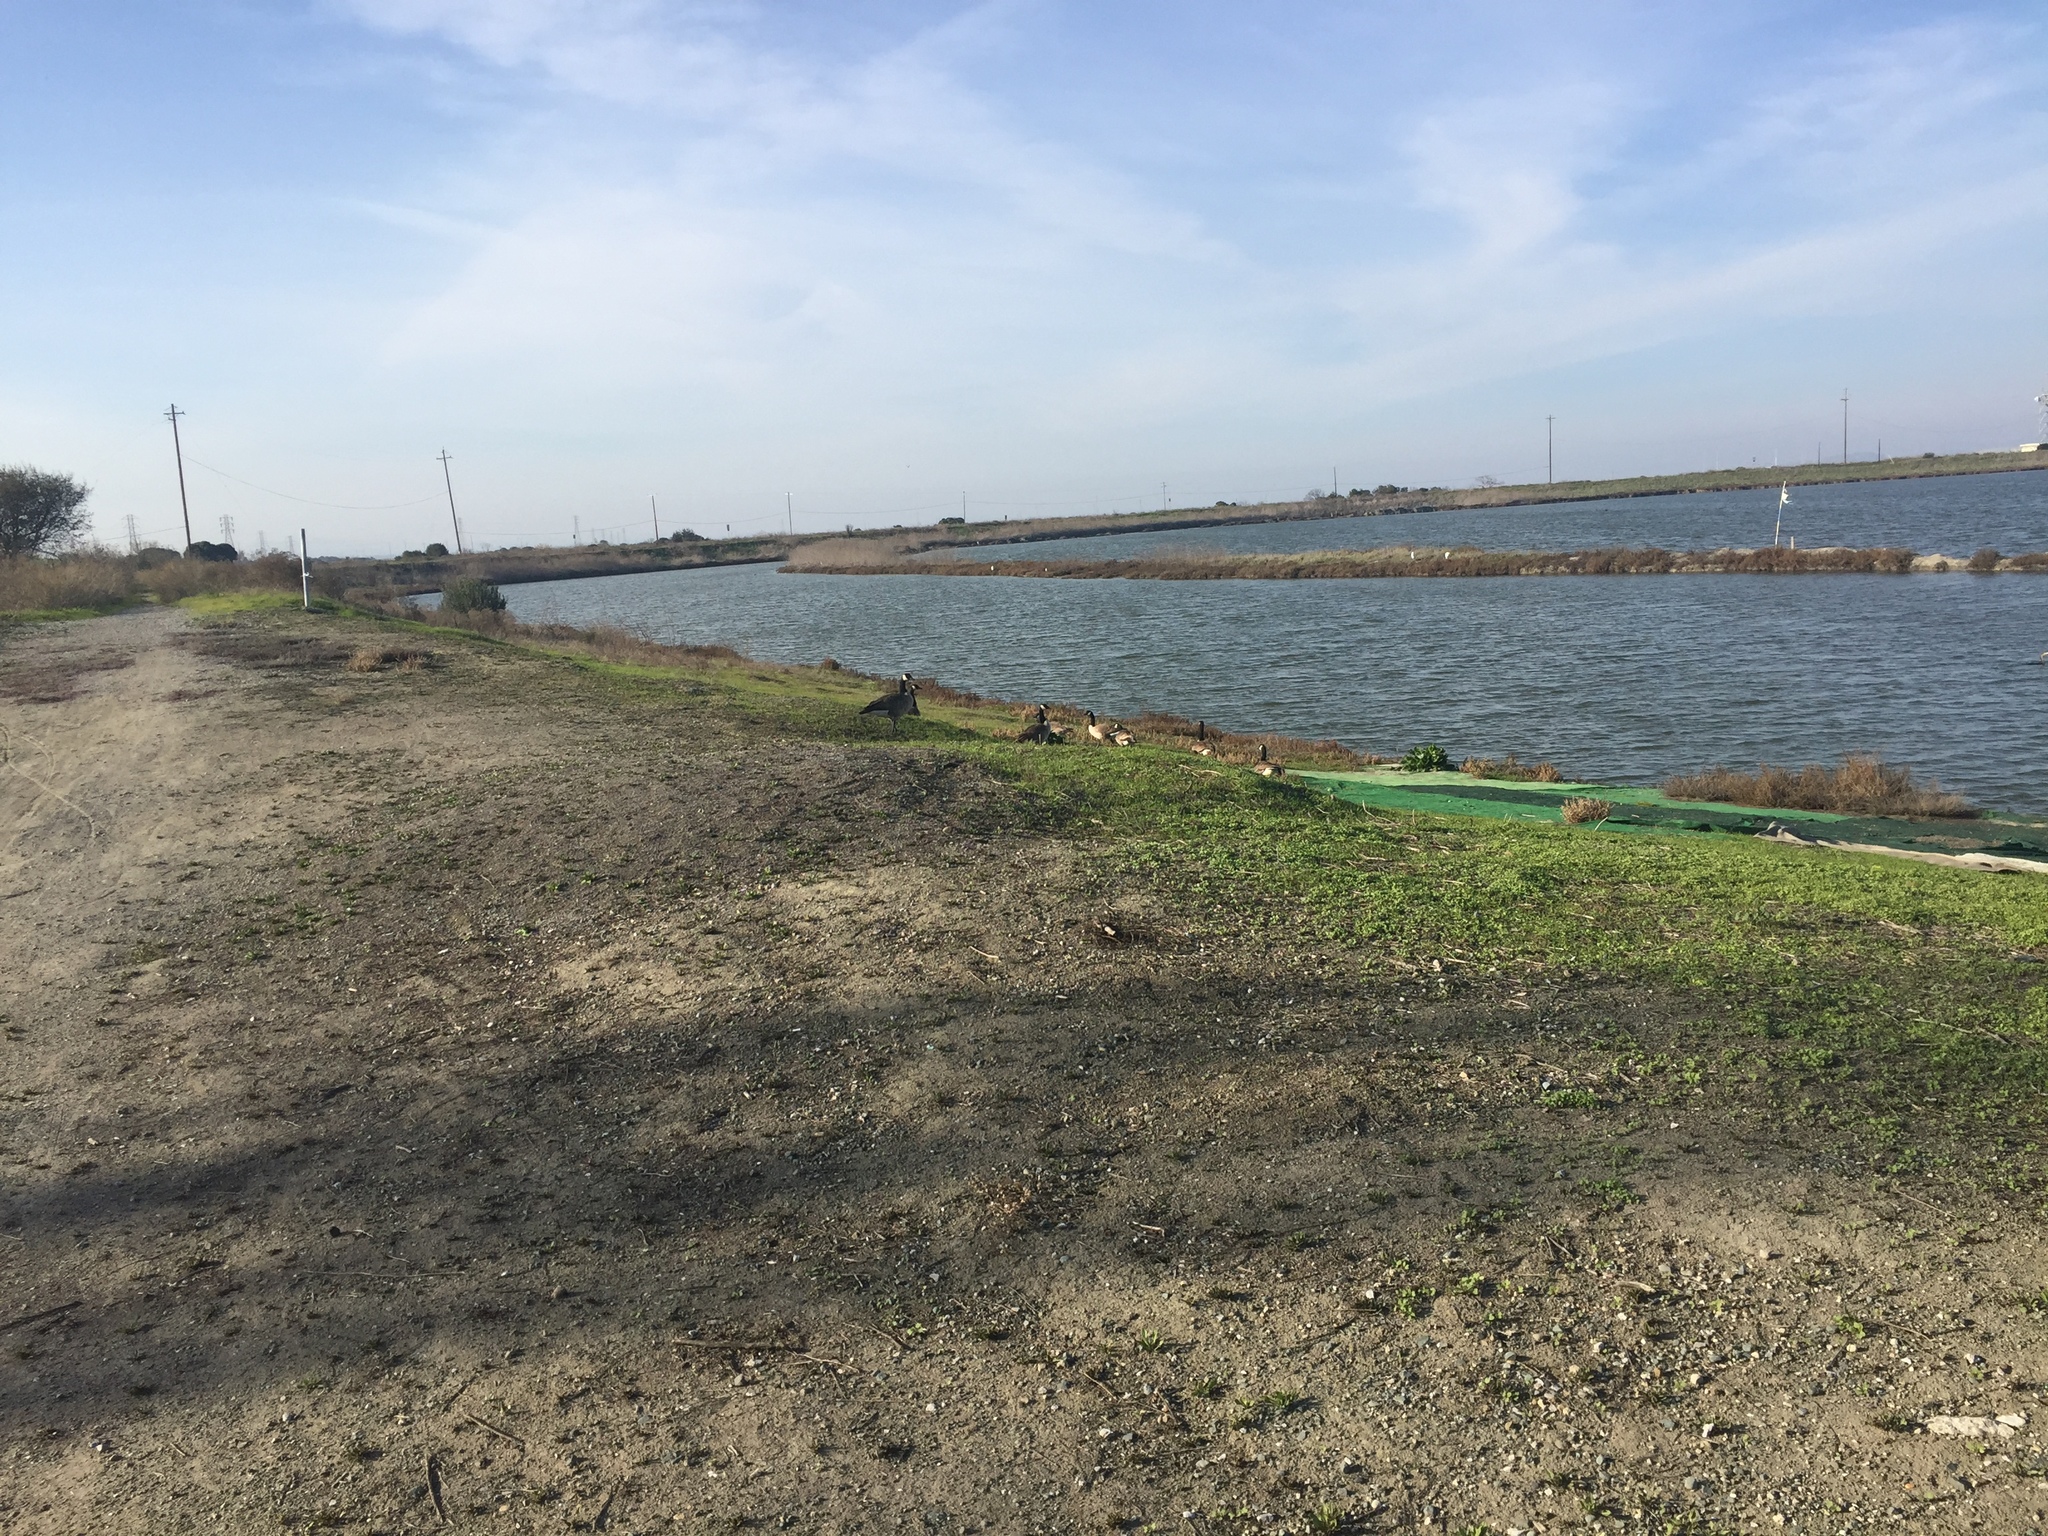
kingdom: Animalia
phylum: Chordata
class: Aves
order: Anseriformes
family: Anatidae
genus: Branta
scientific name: Branta canadensis
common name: Canada goose
